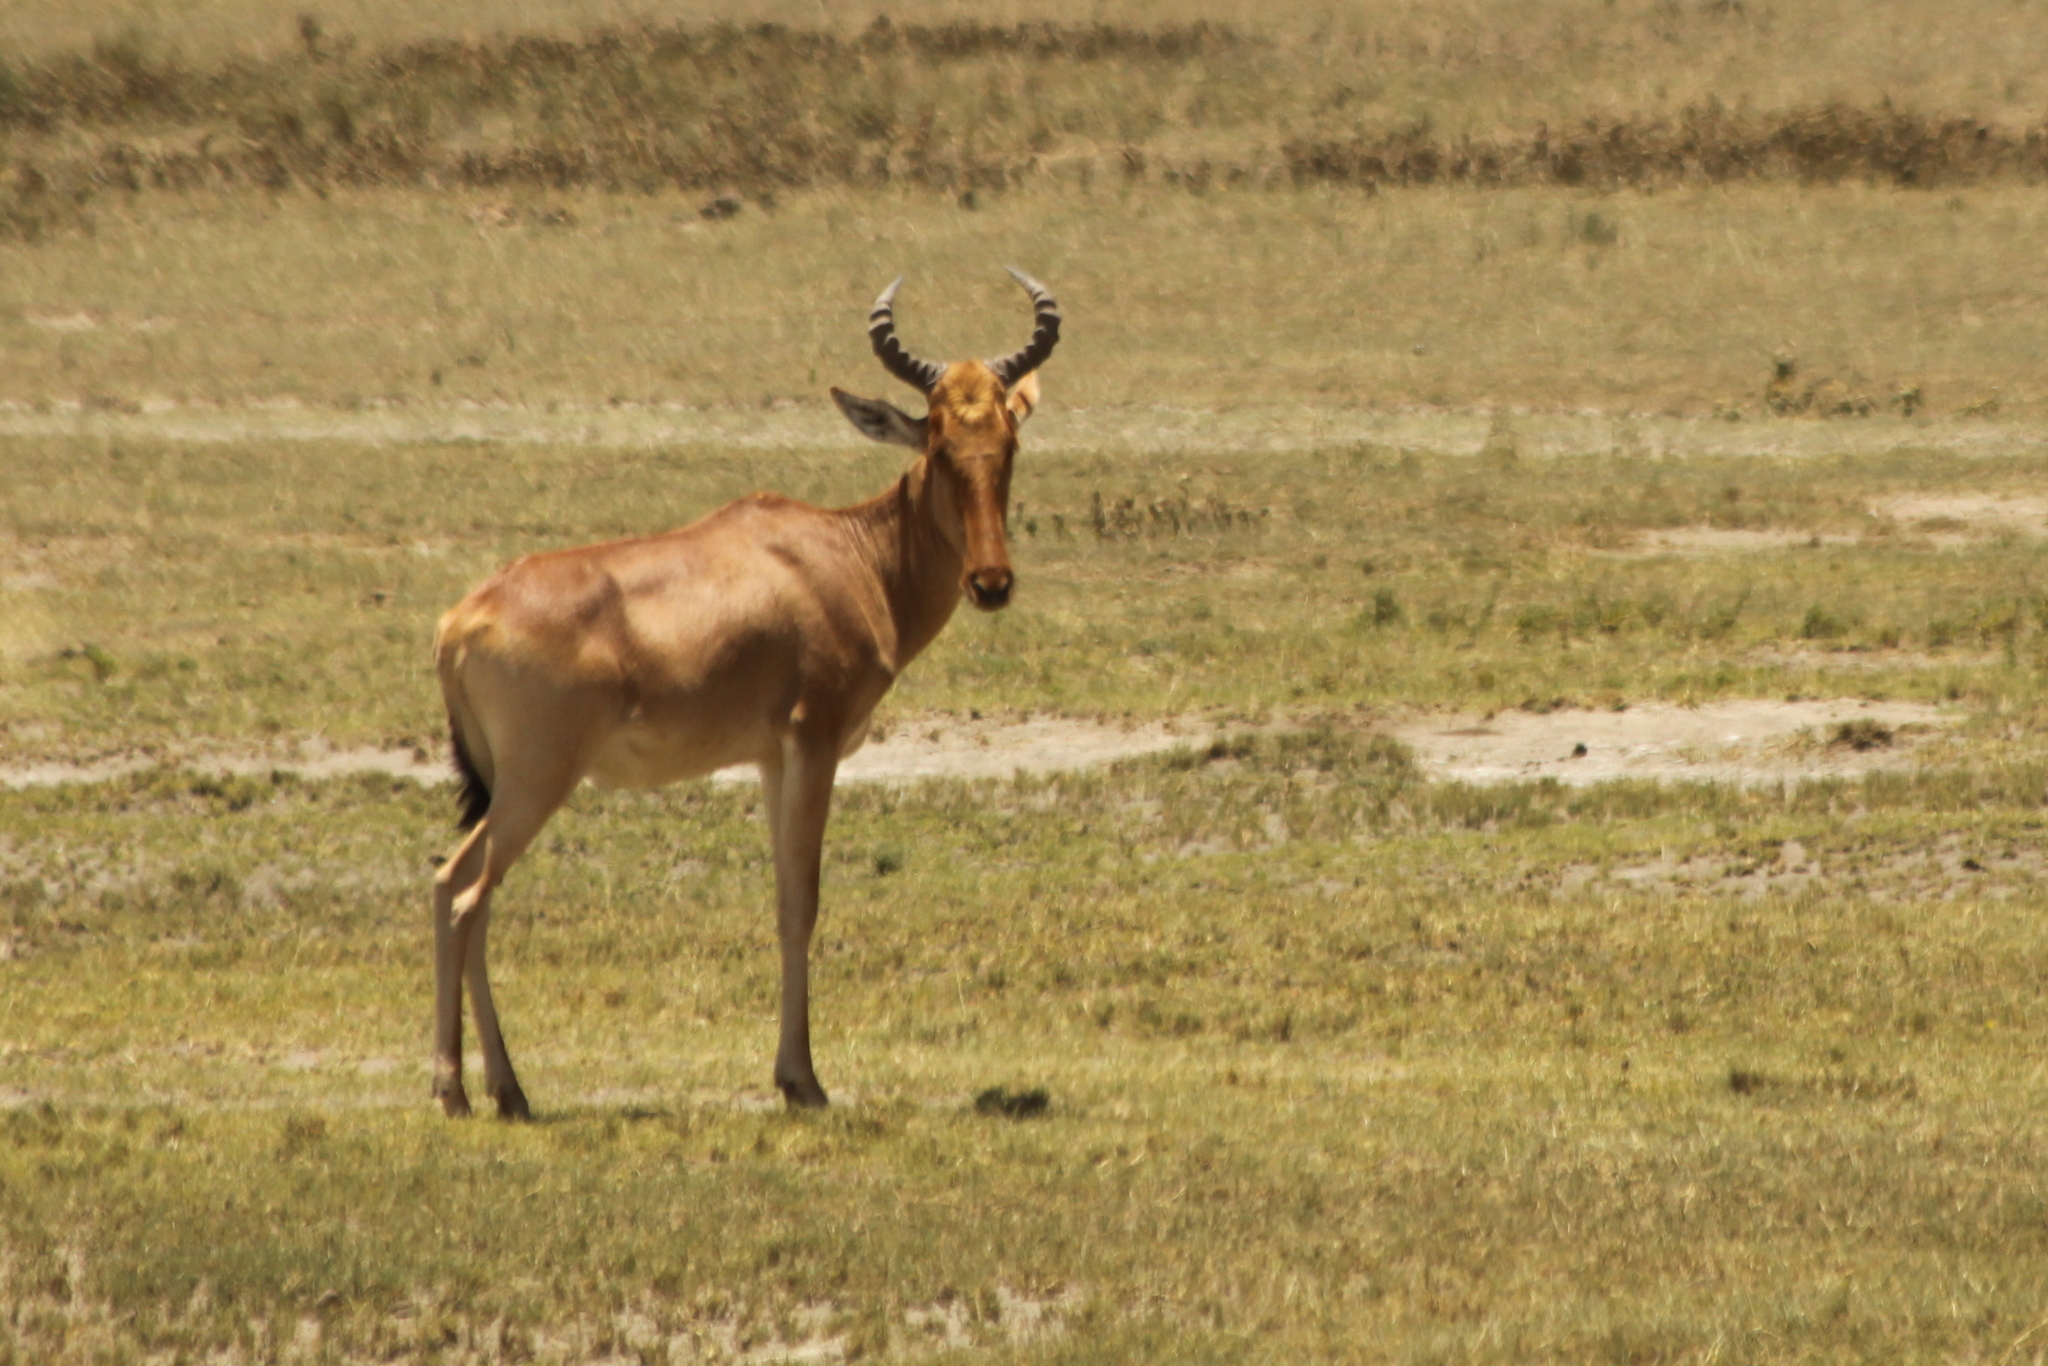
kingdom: Animalia
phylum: Chordata
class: Mammalia
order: Artiodactyla
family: Bovidae
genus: Alcelaphus
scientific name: Alcelaphus buselaphus
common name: Hartebeest
